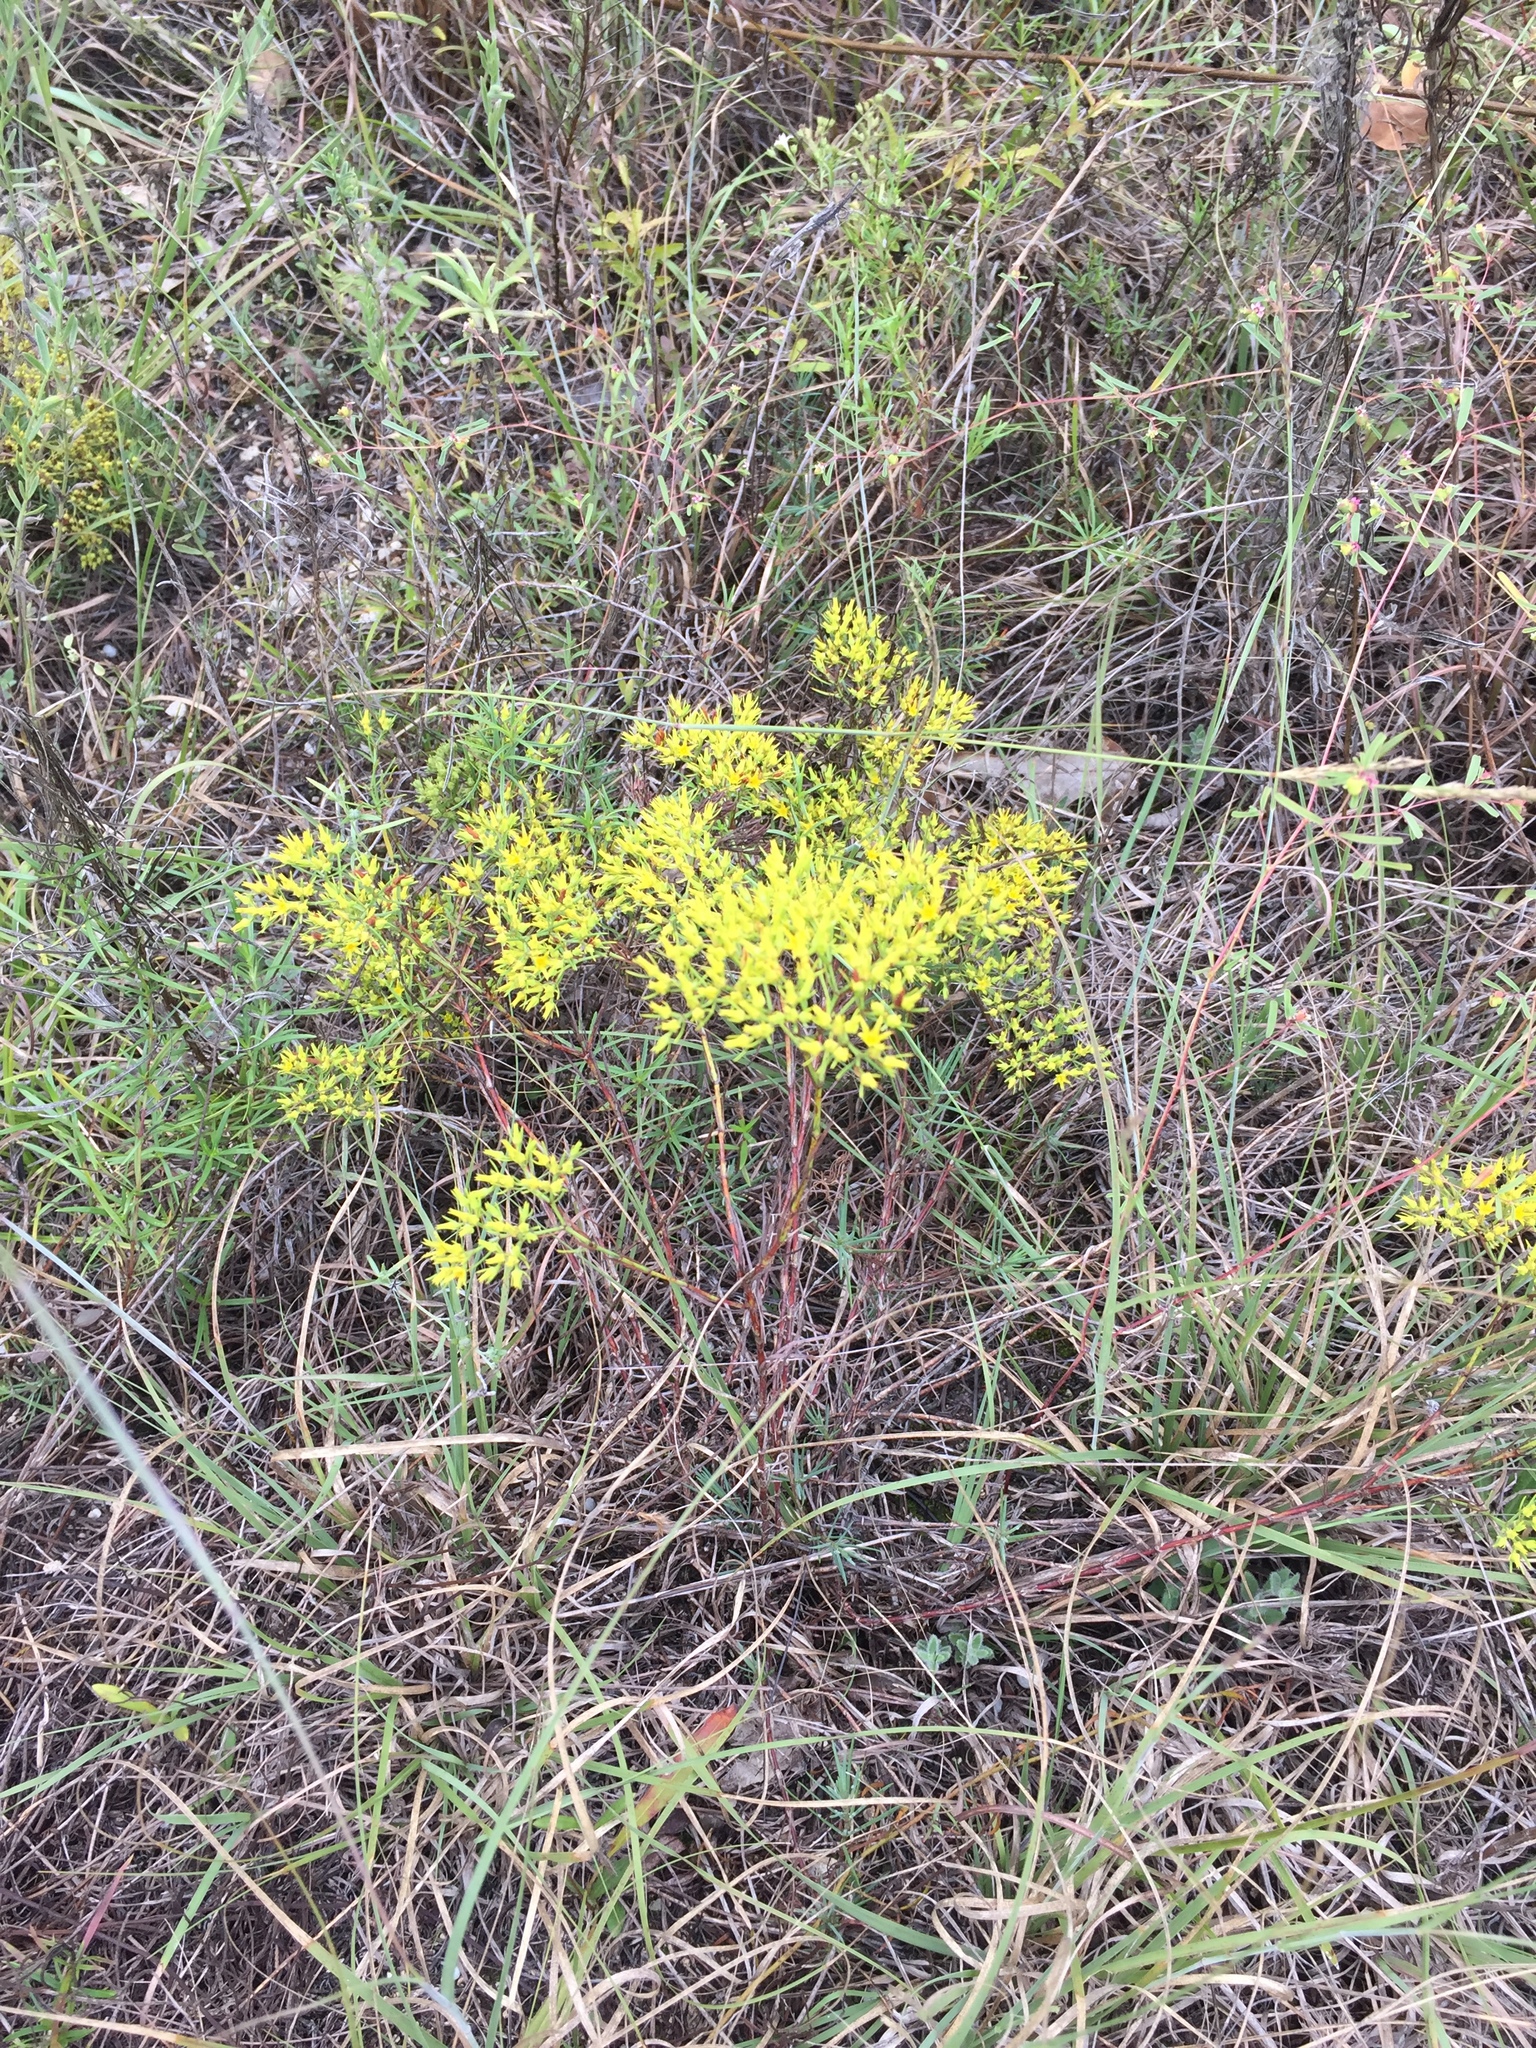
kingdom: Plantae
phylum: Tracheophyta
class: Magnoliopsida
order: Caryophyllales
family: Caryophyllaceae
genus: Paronychia
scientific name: Paronychia virginica
